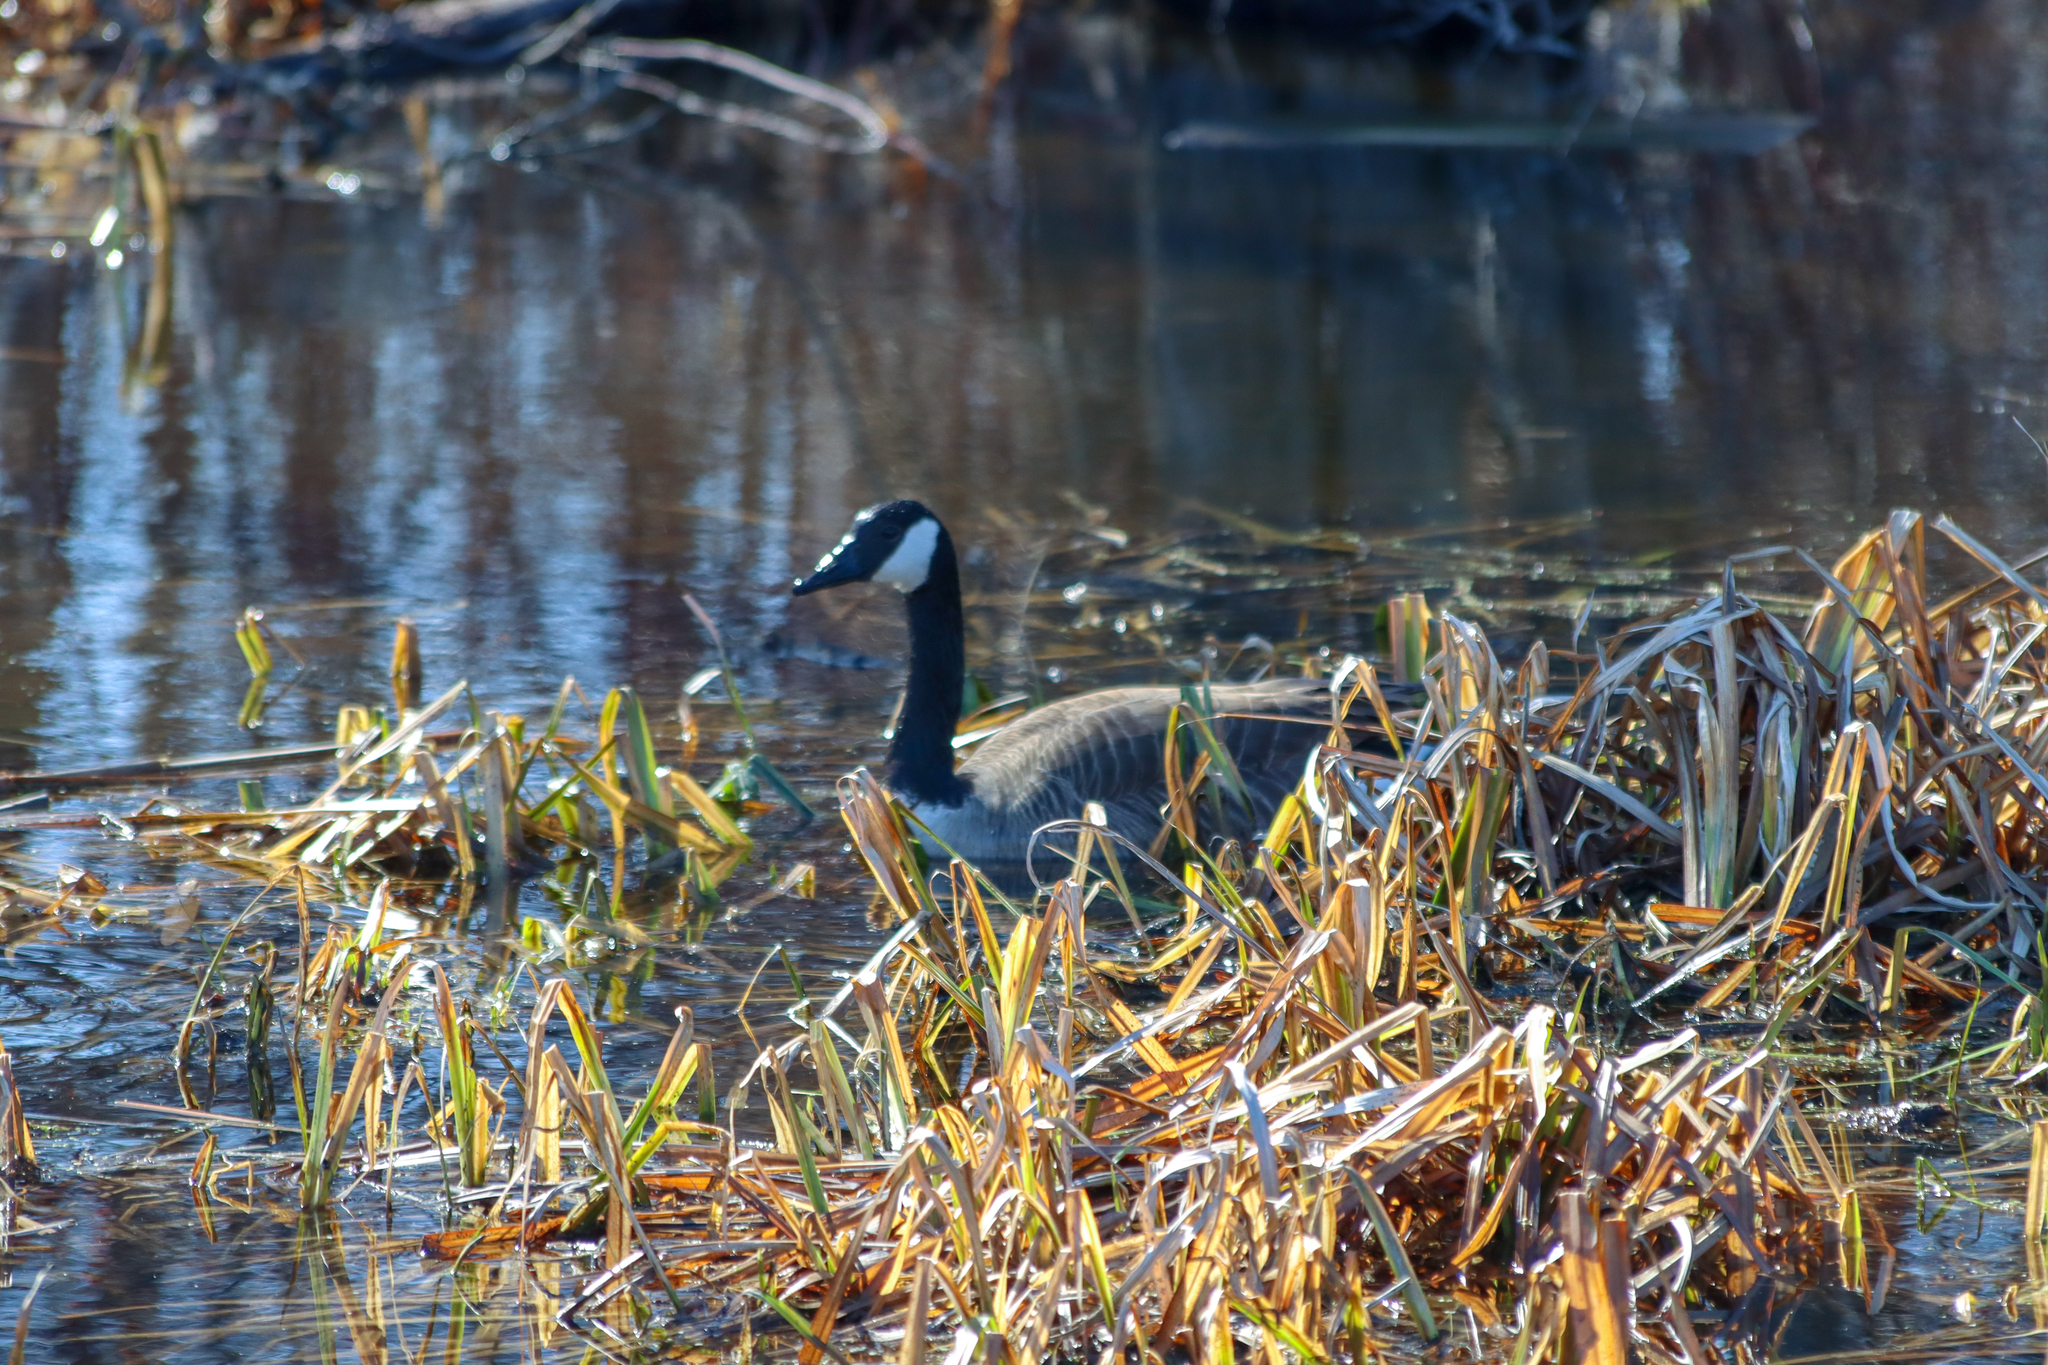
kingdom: Animalia
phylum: Chordata
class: Aves
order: Anseriformes
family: Anatidae
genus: Branta
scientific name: Branta canadensis
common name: Canada goose
